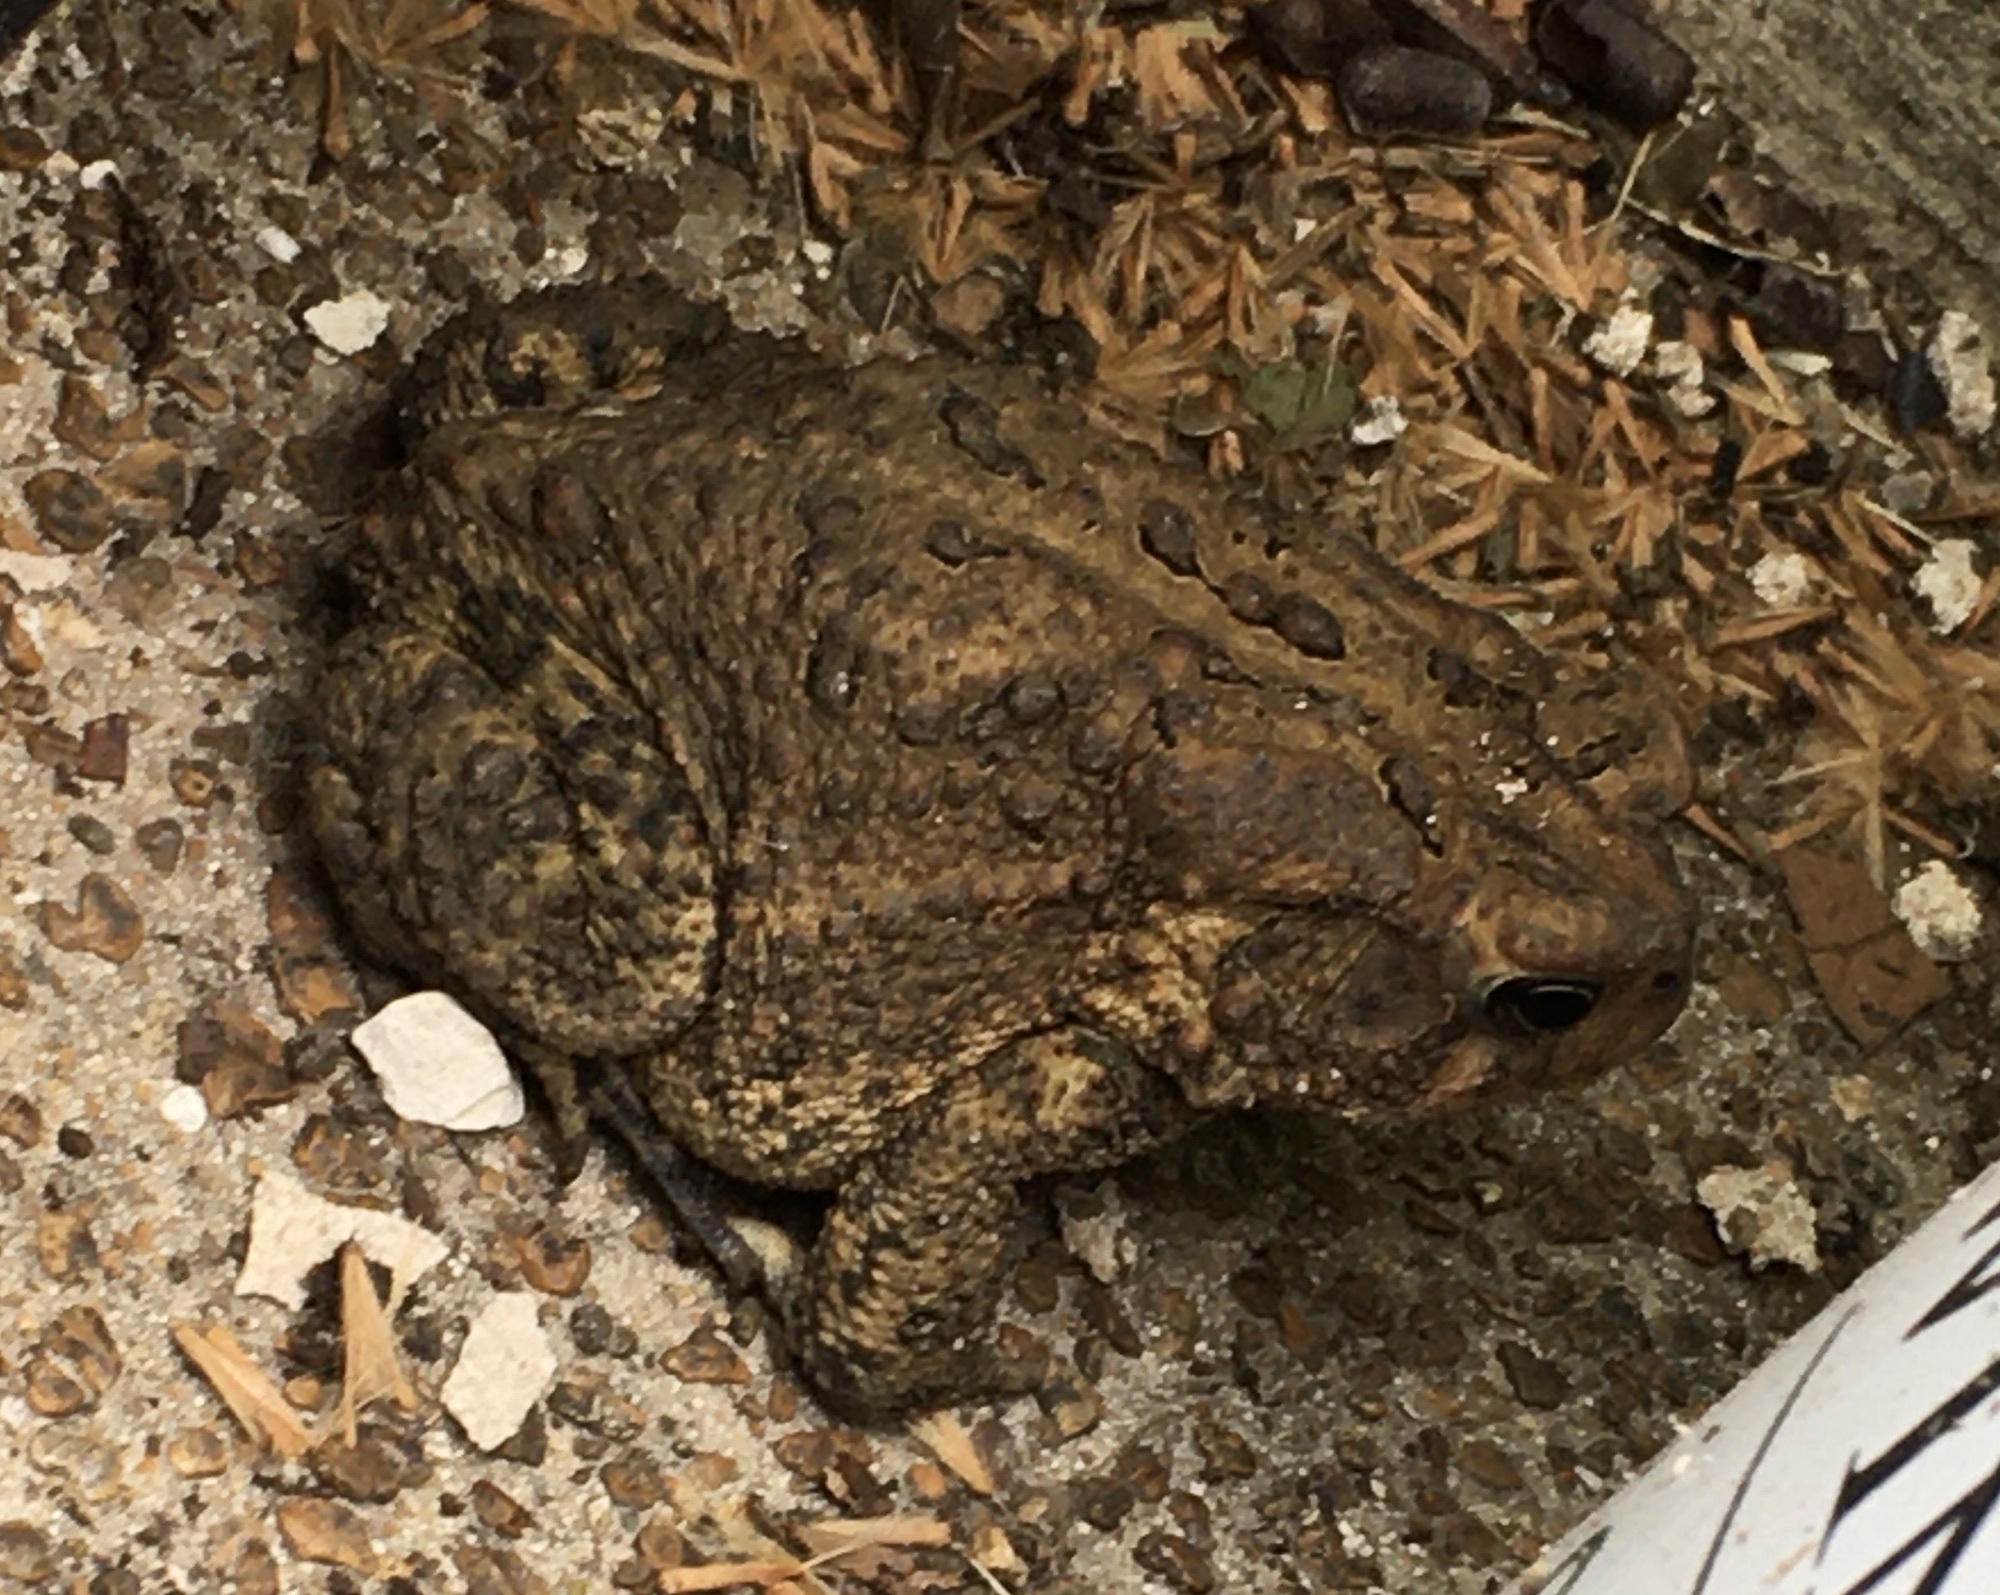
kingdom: Animalia
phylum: Chordata
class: Amphibia
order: Anura
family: Bufonidae
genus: Anaxyrus
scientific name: Anaxyrus americanus
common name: American toad
